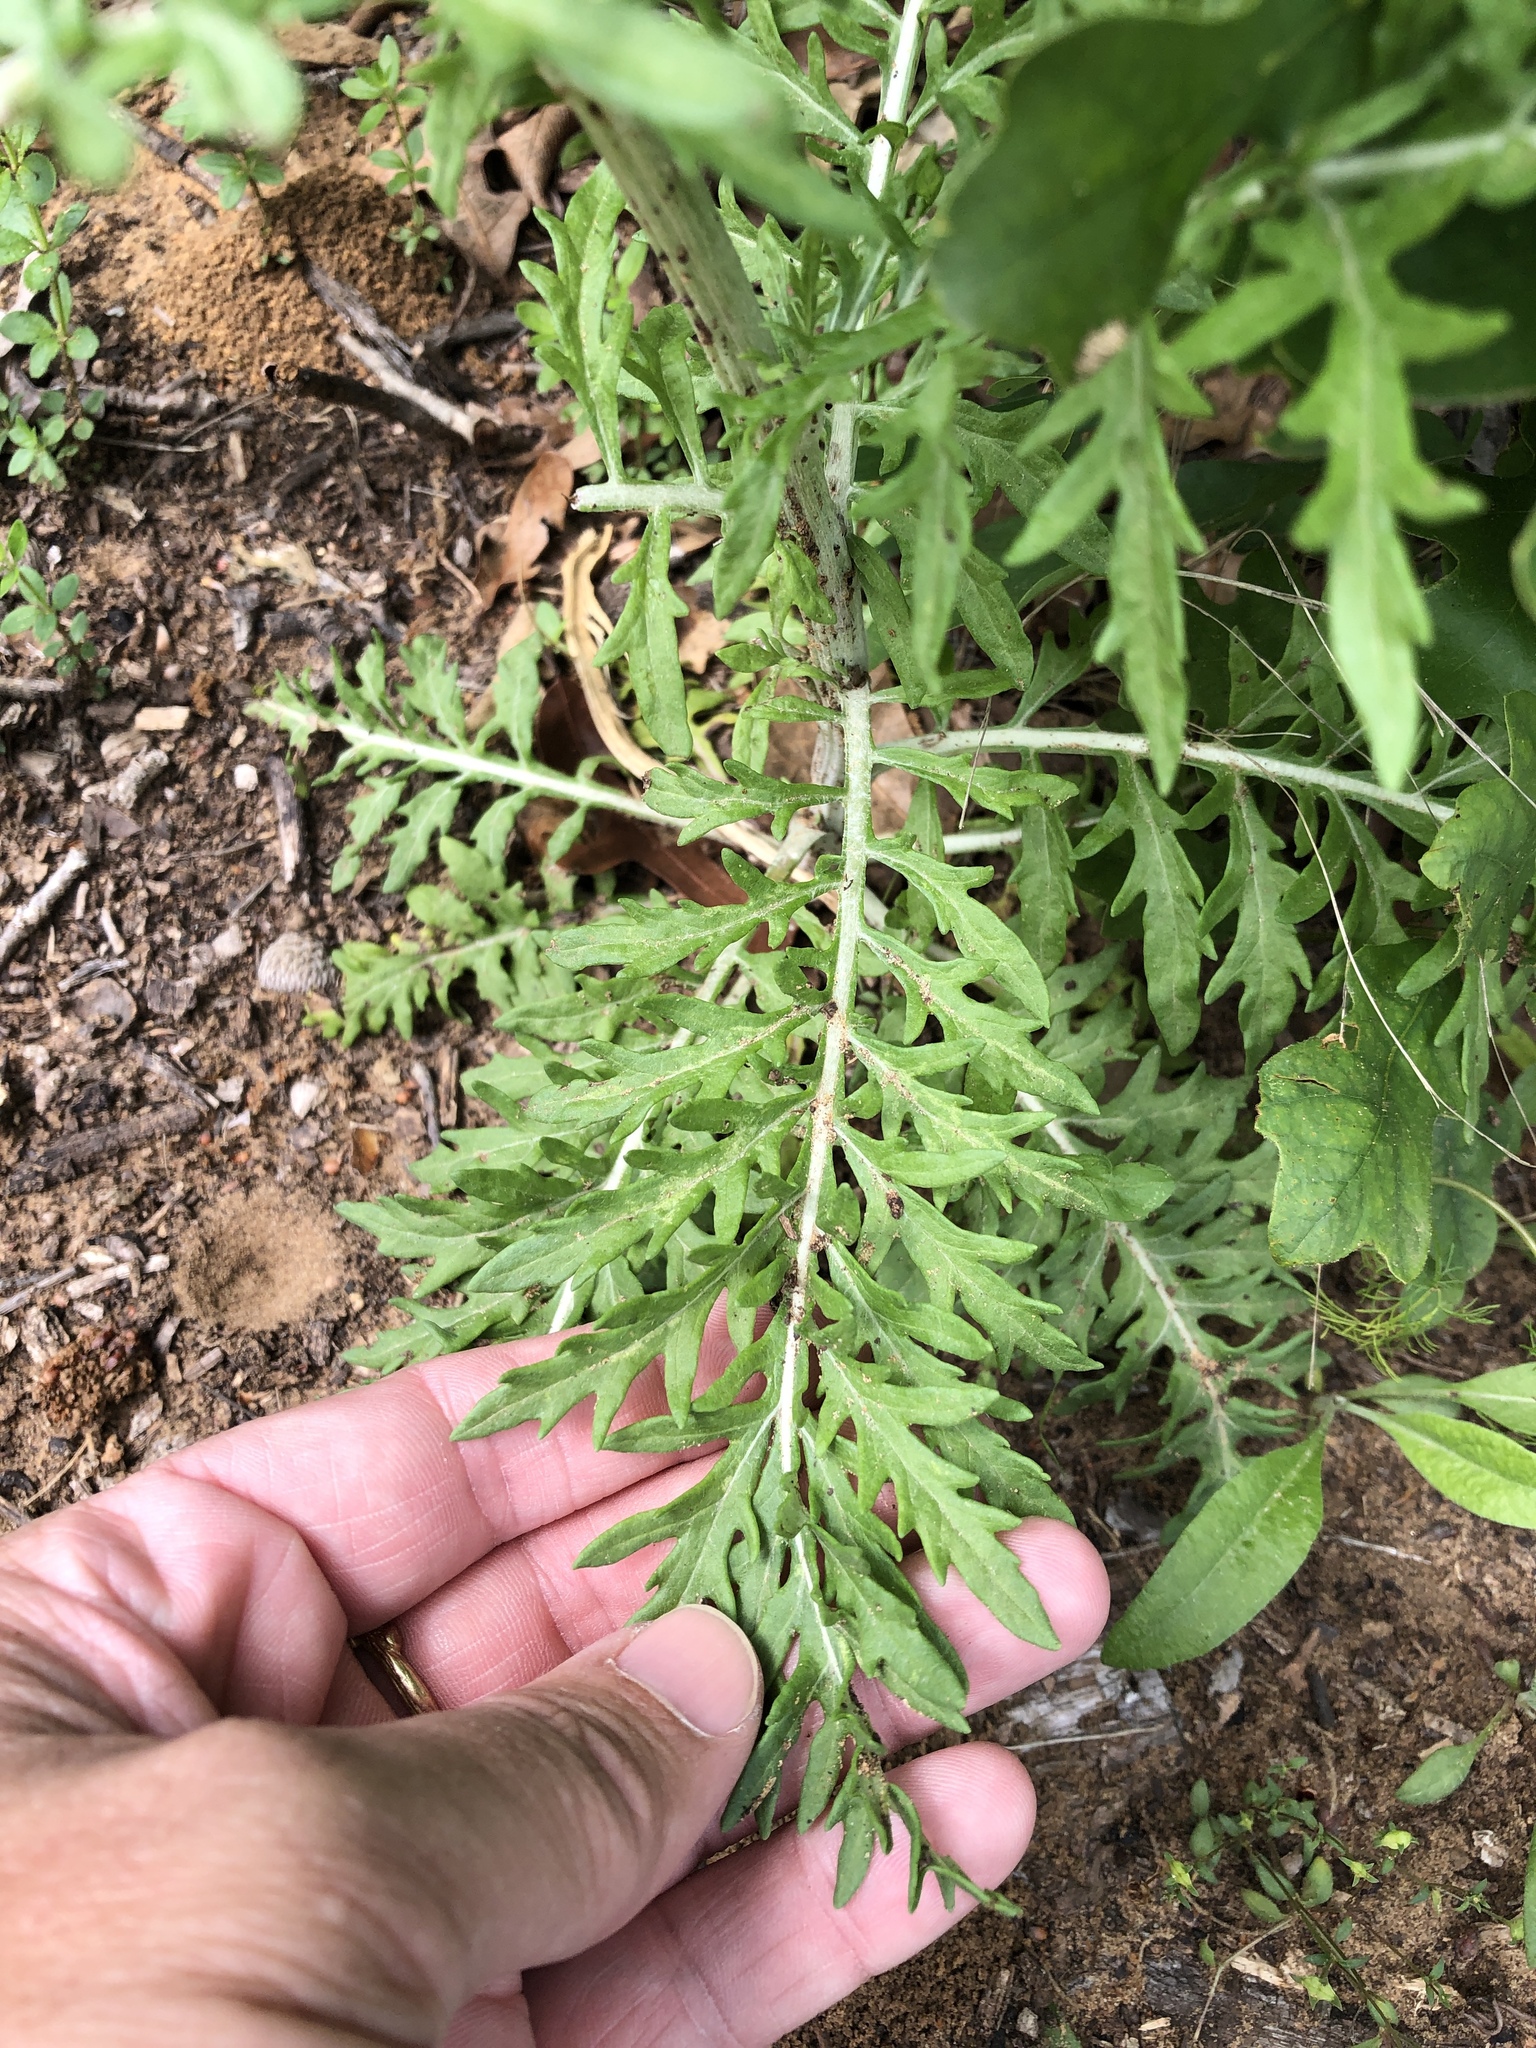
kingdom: Plantae
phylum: Tracheophyta
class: Magnoliopsida
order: Asterales
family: Asteraceae
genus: Hymenopappus
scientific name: Hymenopappus scabiosaeus
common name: Carolina woollywhite
